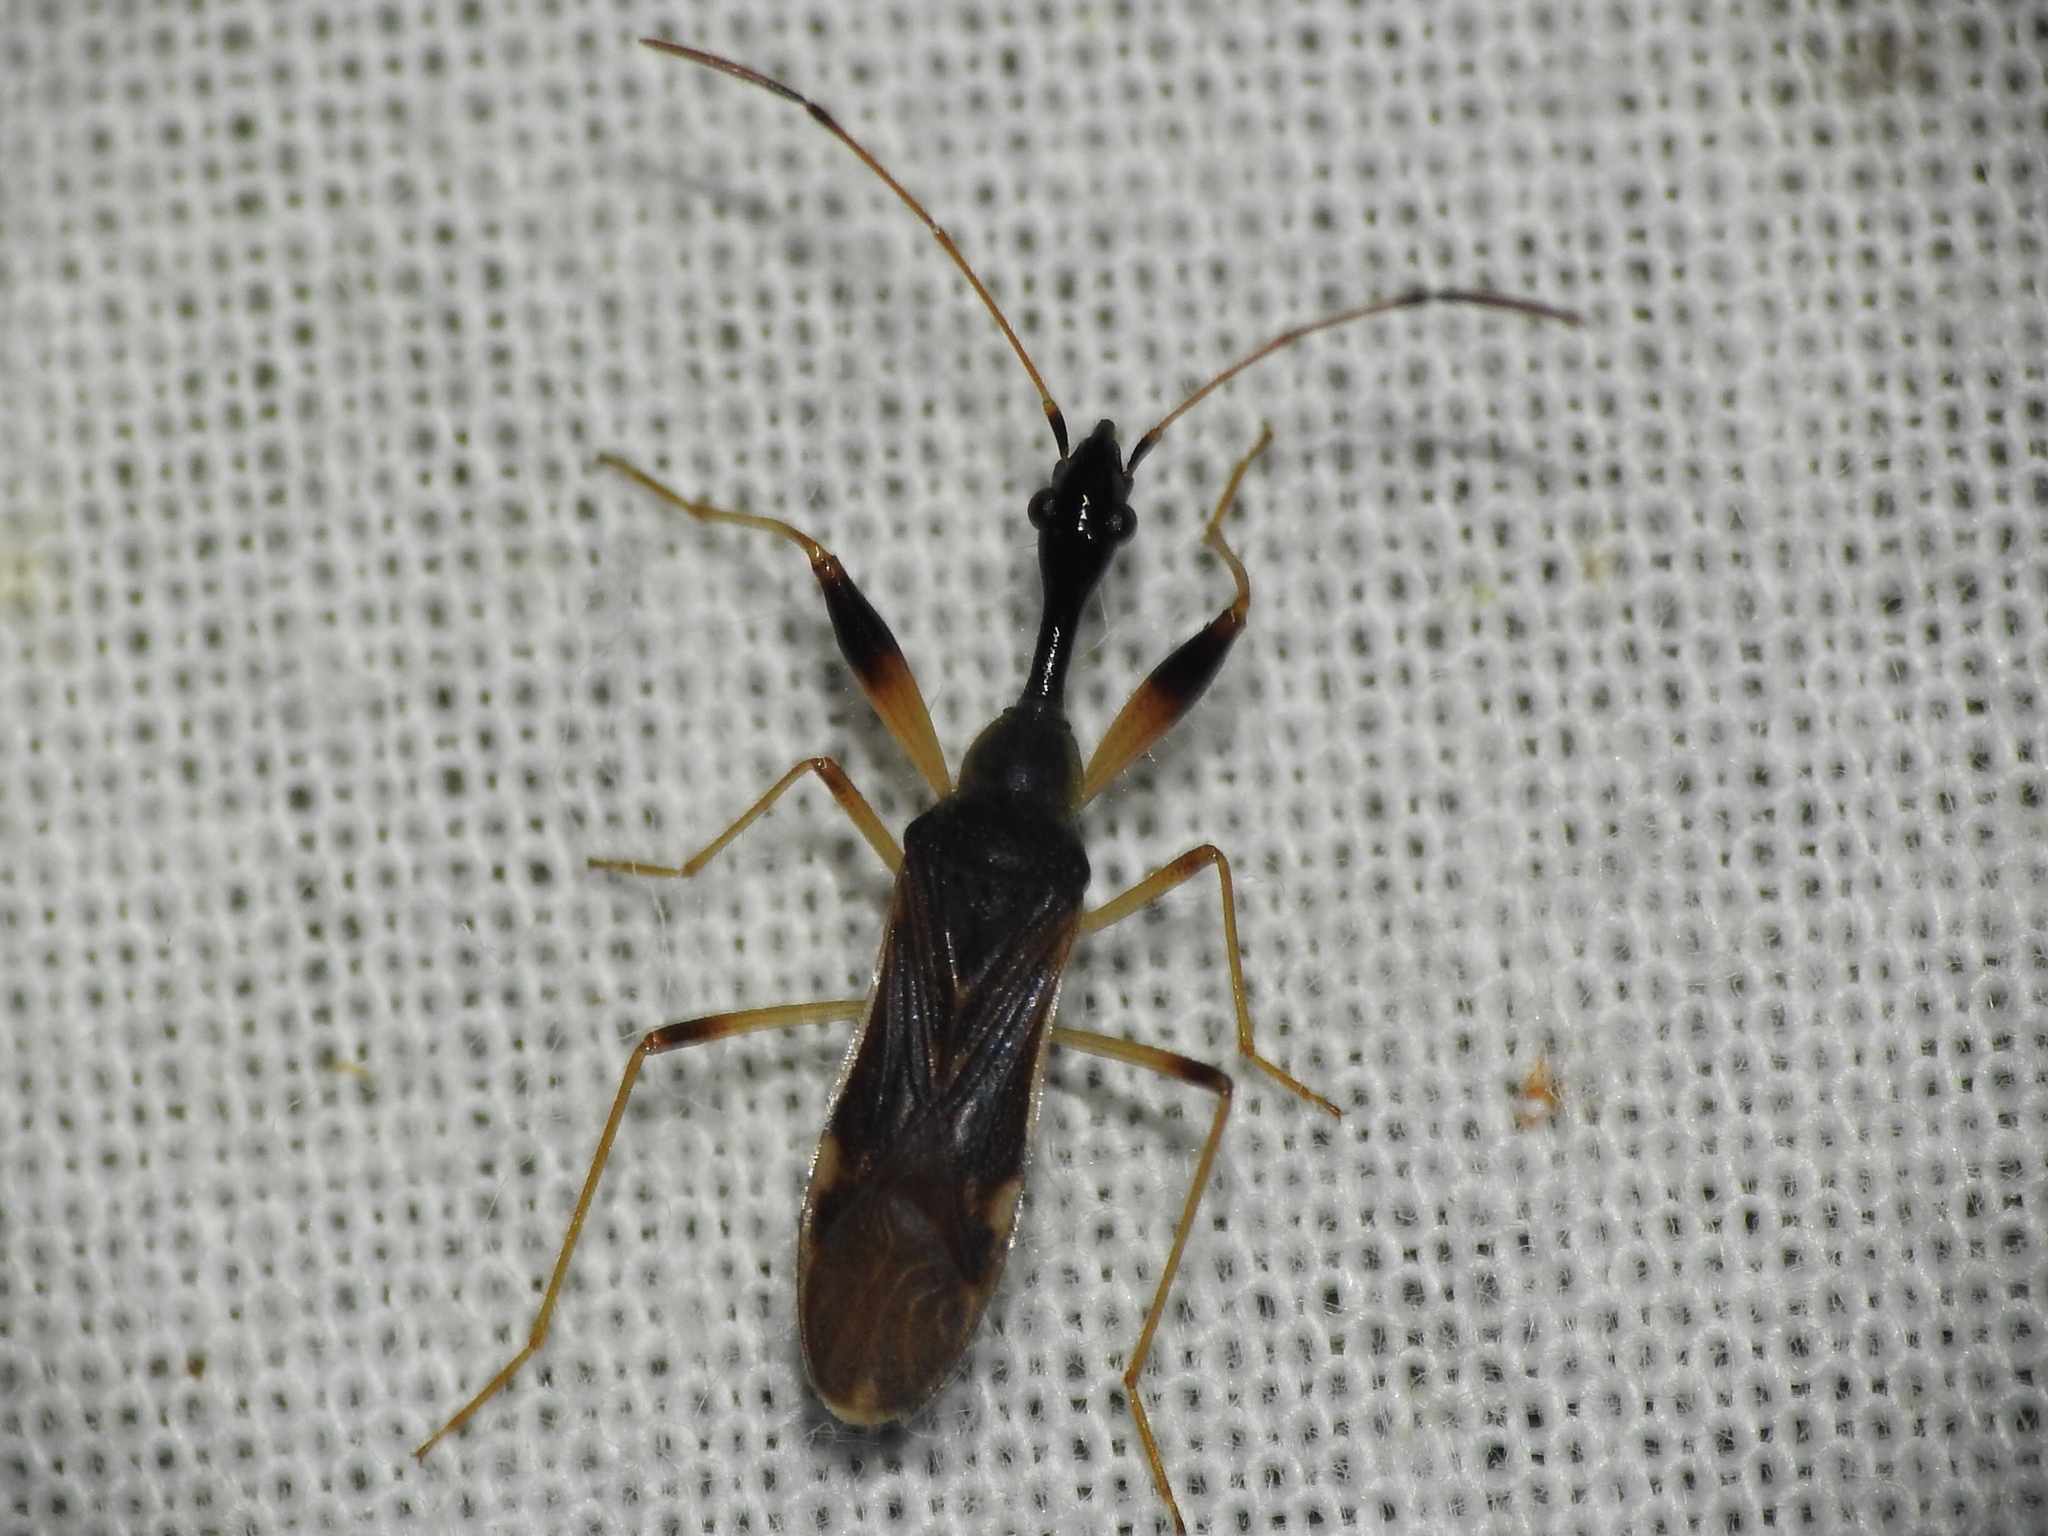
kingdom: Animalia
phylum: Arthropoda
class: Insecta
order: Hemiptera
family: Rhyparochromidae
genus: Myodocha
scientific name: Myodocha serripes
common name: Long-necked seed bug
